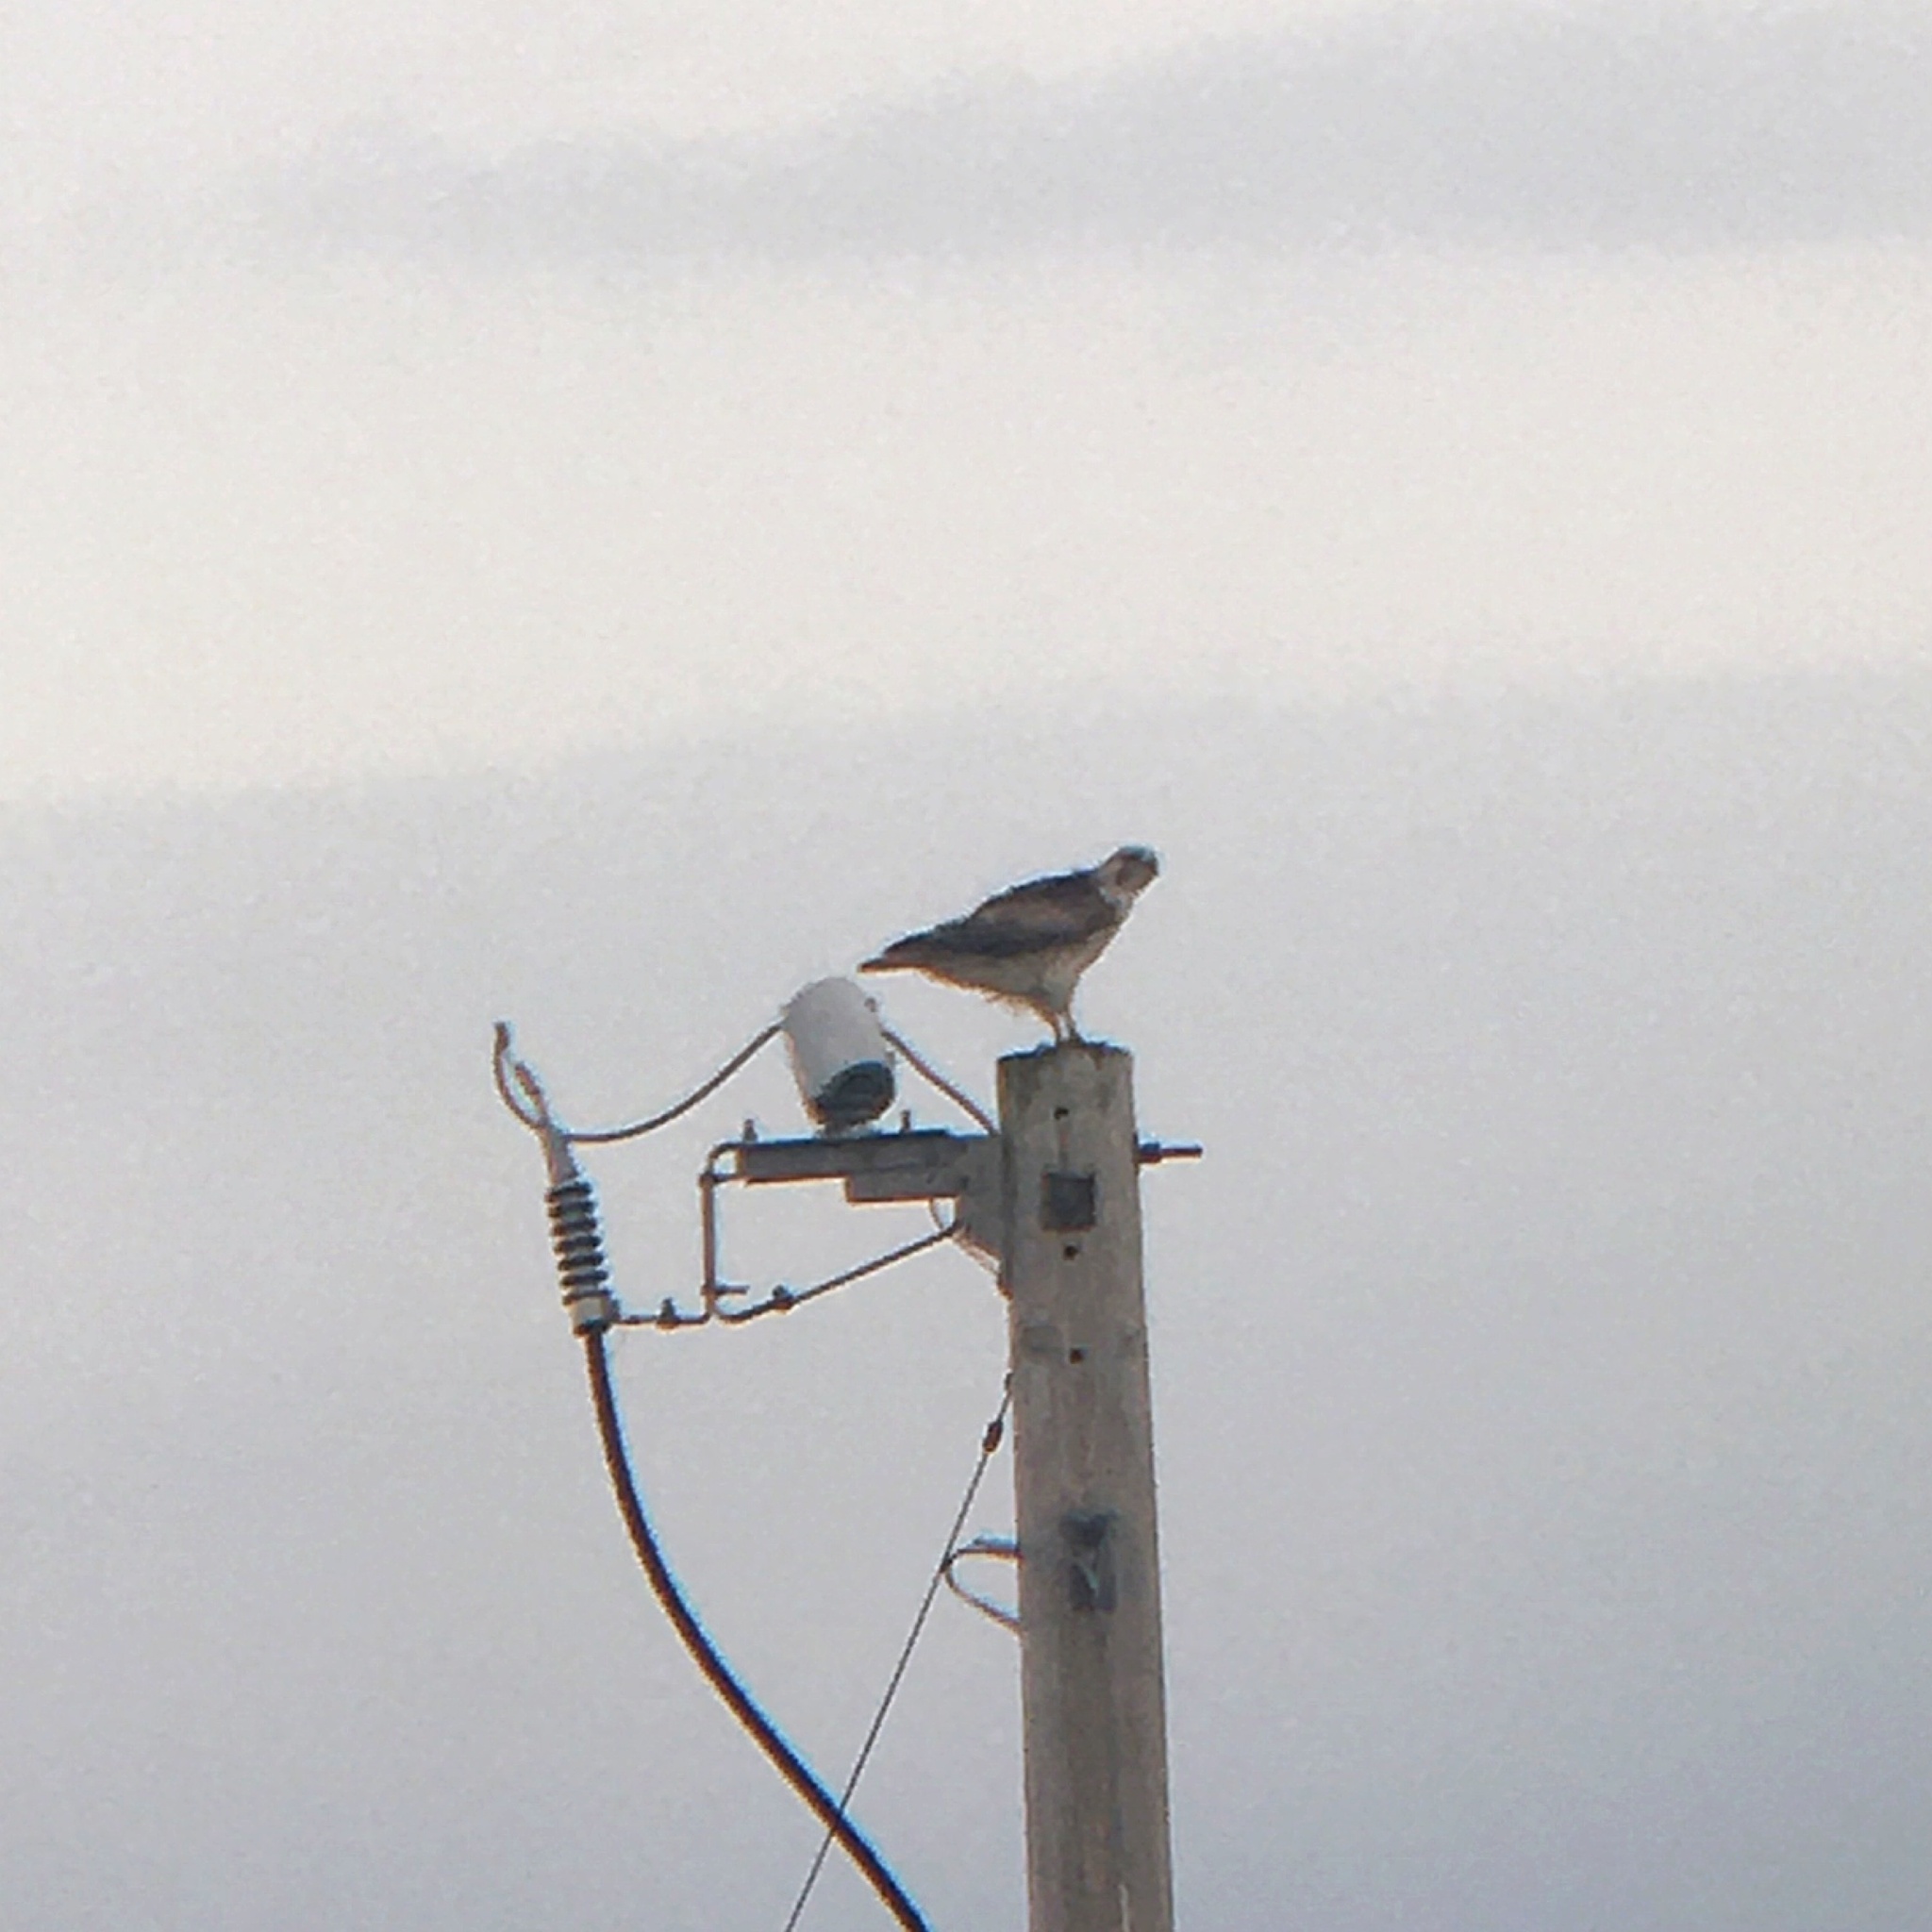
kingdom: Animalia
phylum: Chordata
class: Aves
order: Accipitriformes
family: Accipitridae
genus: Buteo
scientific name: Buteo jamaicensis
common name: Red-tailed hawk
